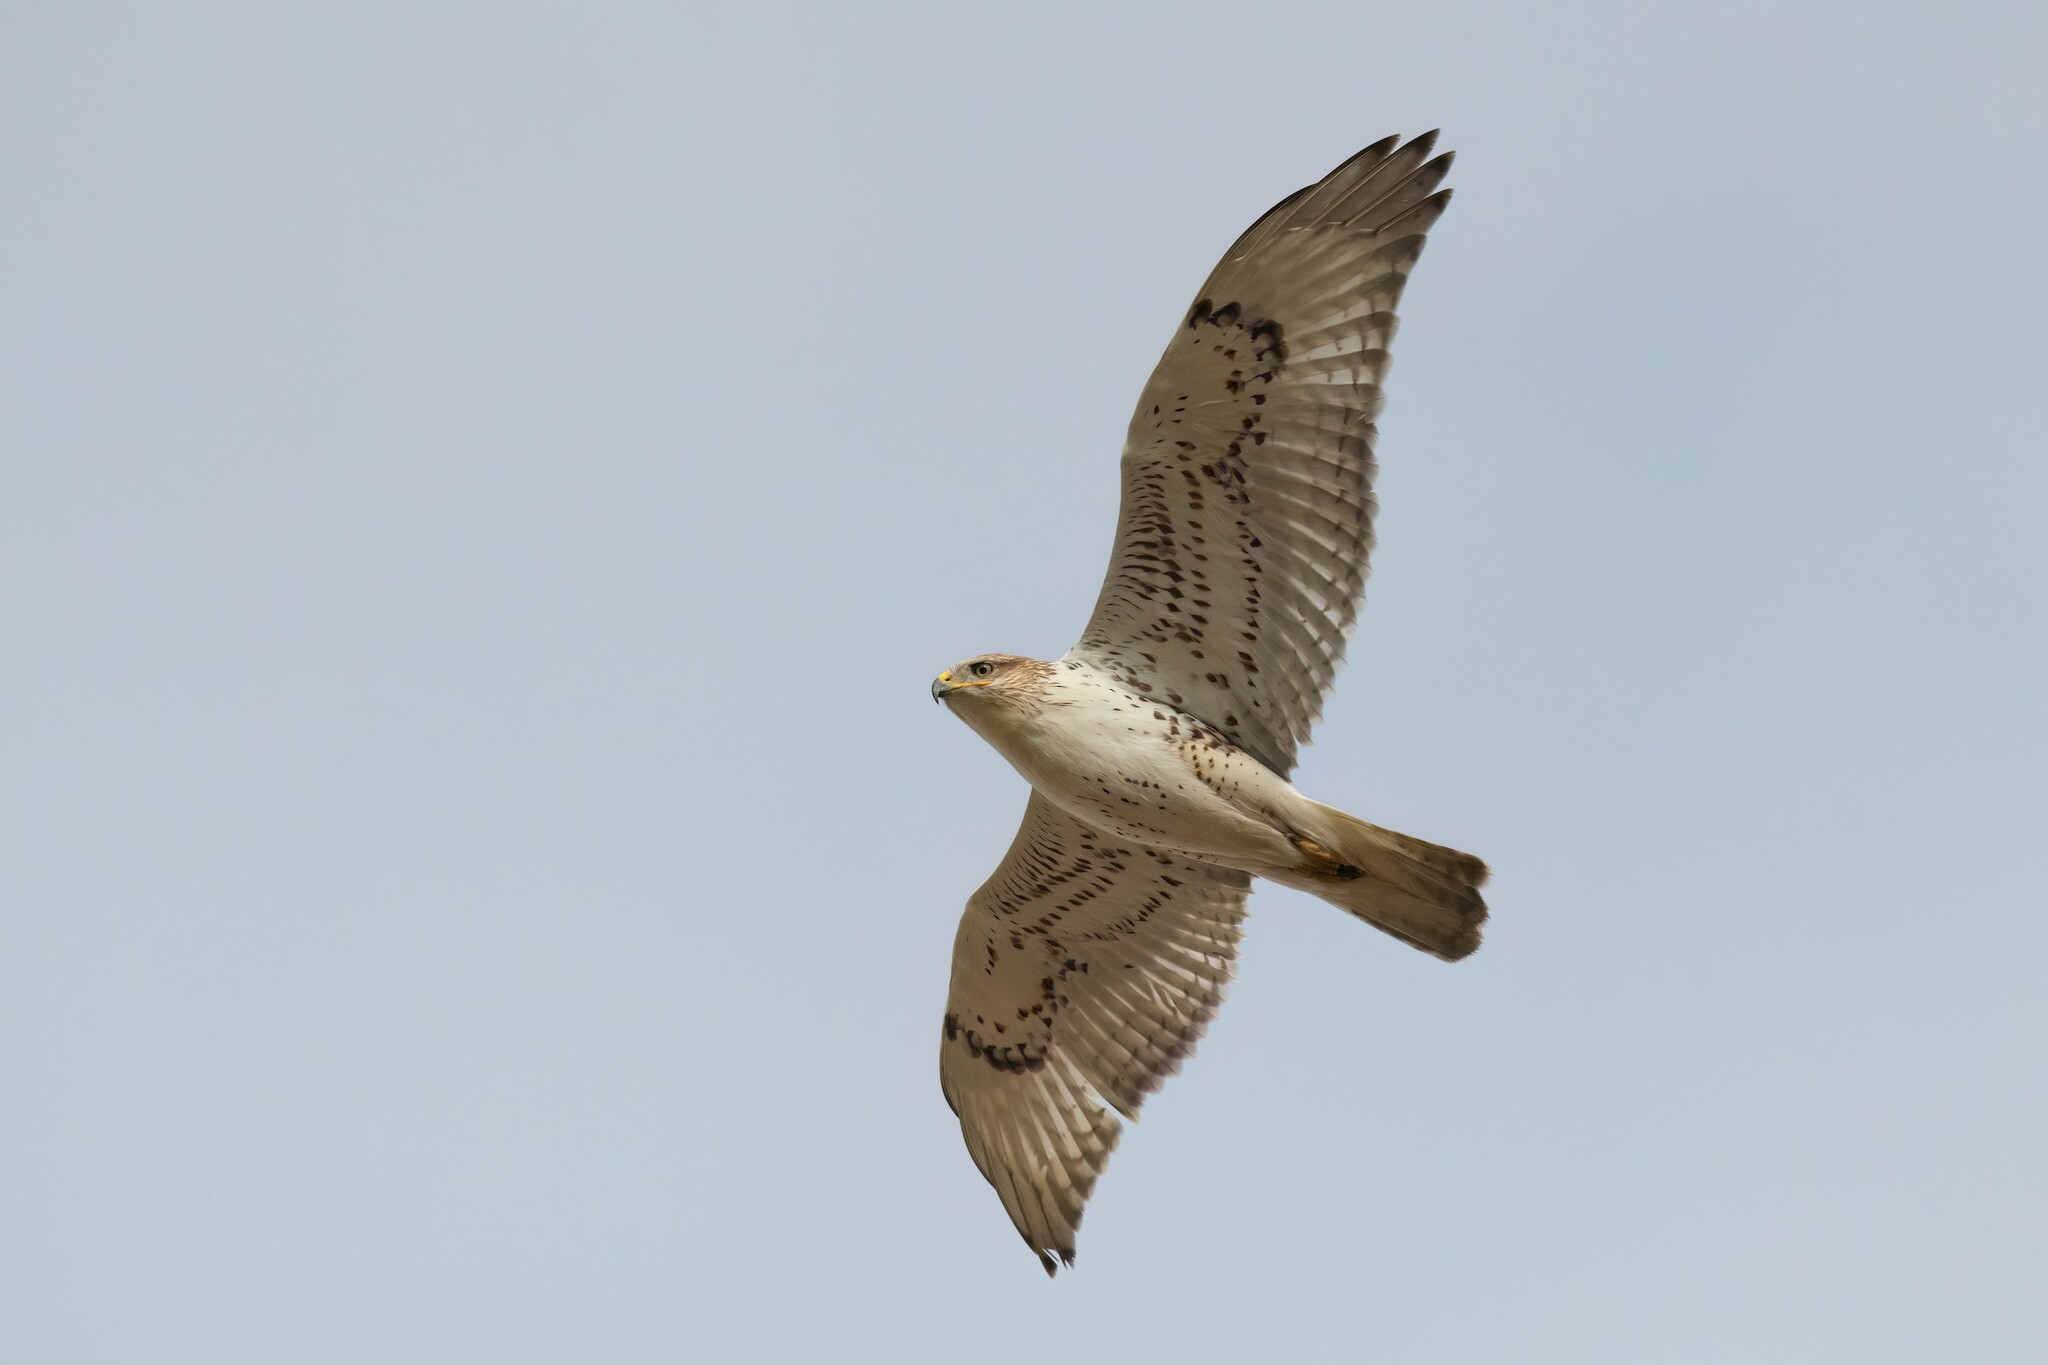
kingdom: Animalia
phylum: Chordata
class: Aves
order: Accipitriformes
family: Accipitridae
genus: Buteo
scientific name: Buteo regalis
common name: Ferruginous hawk
